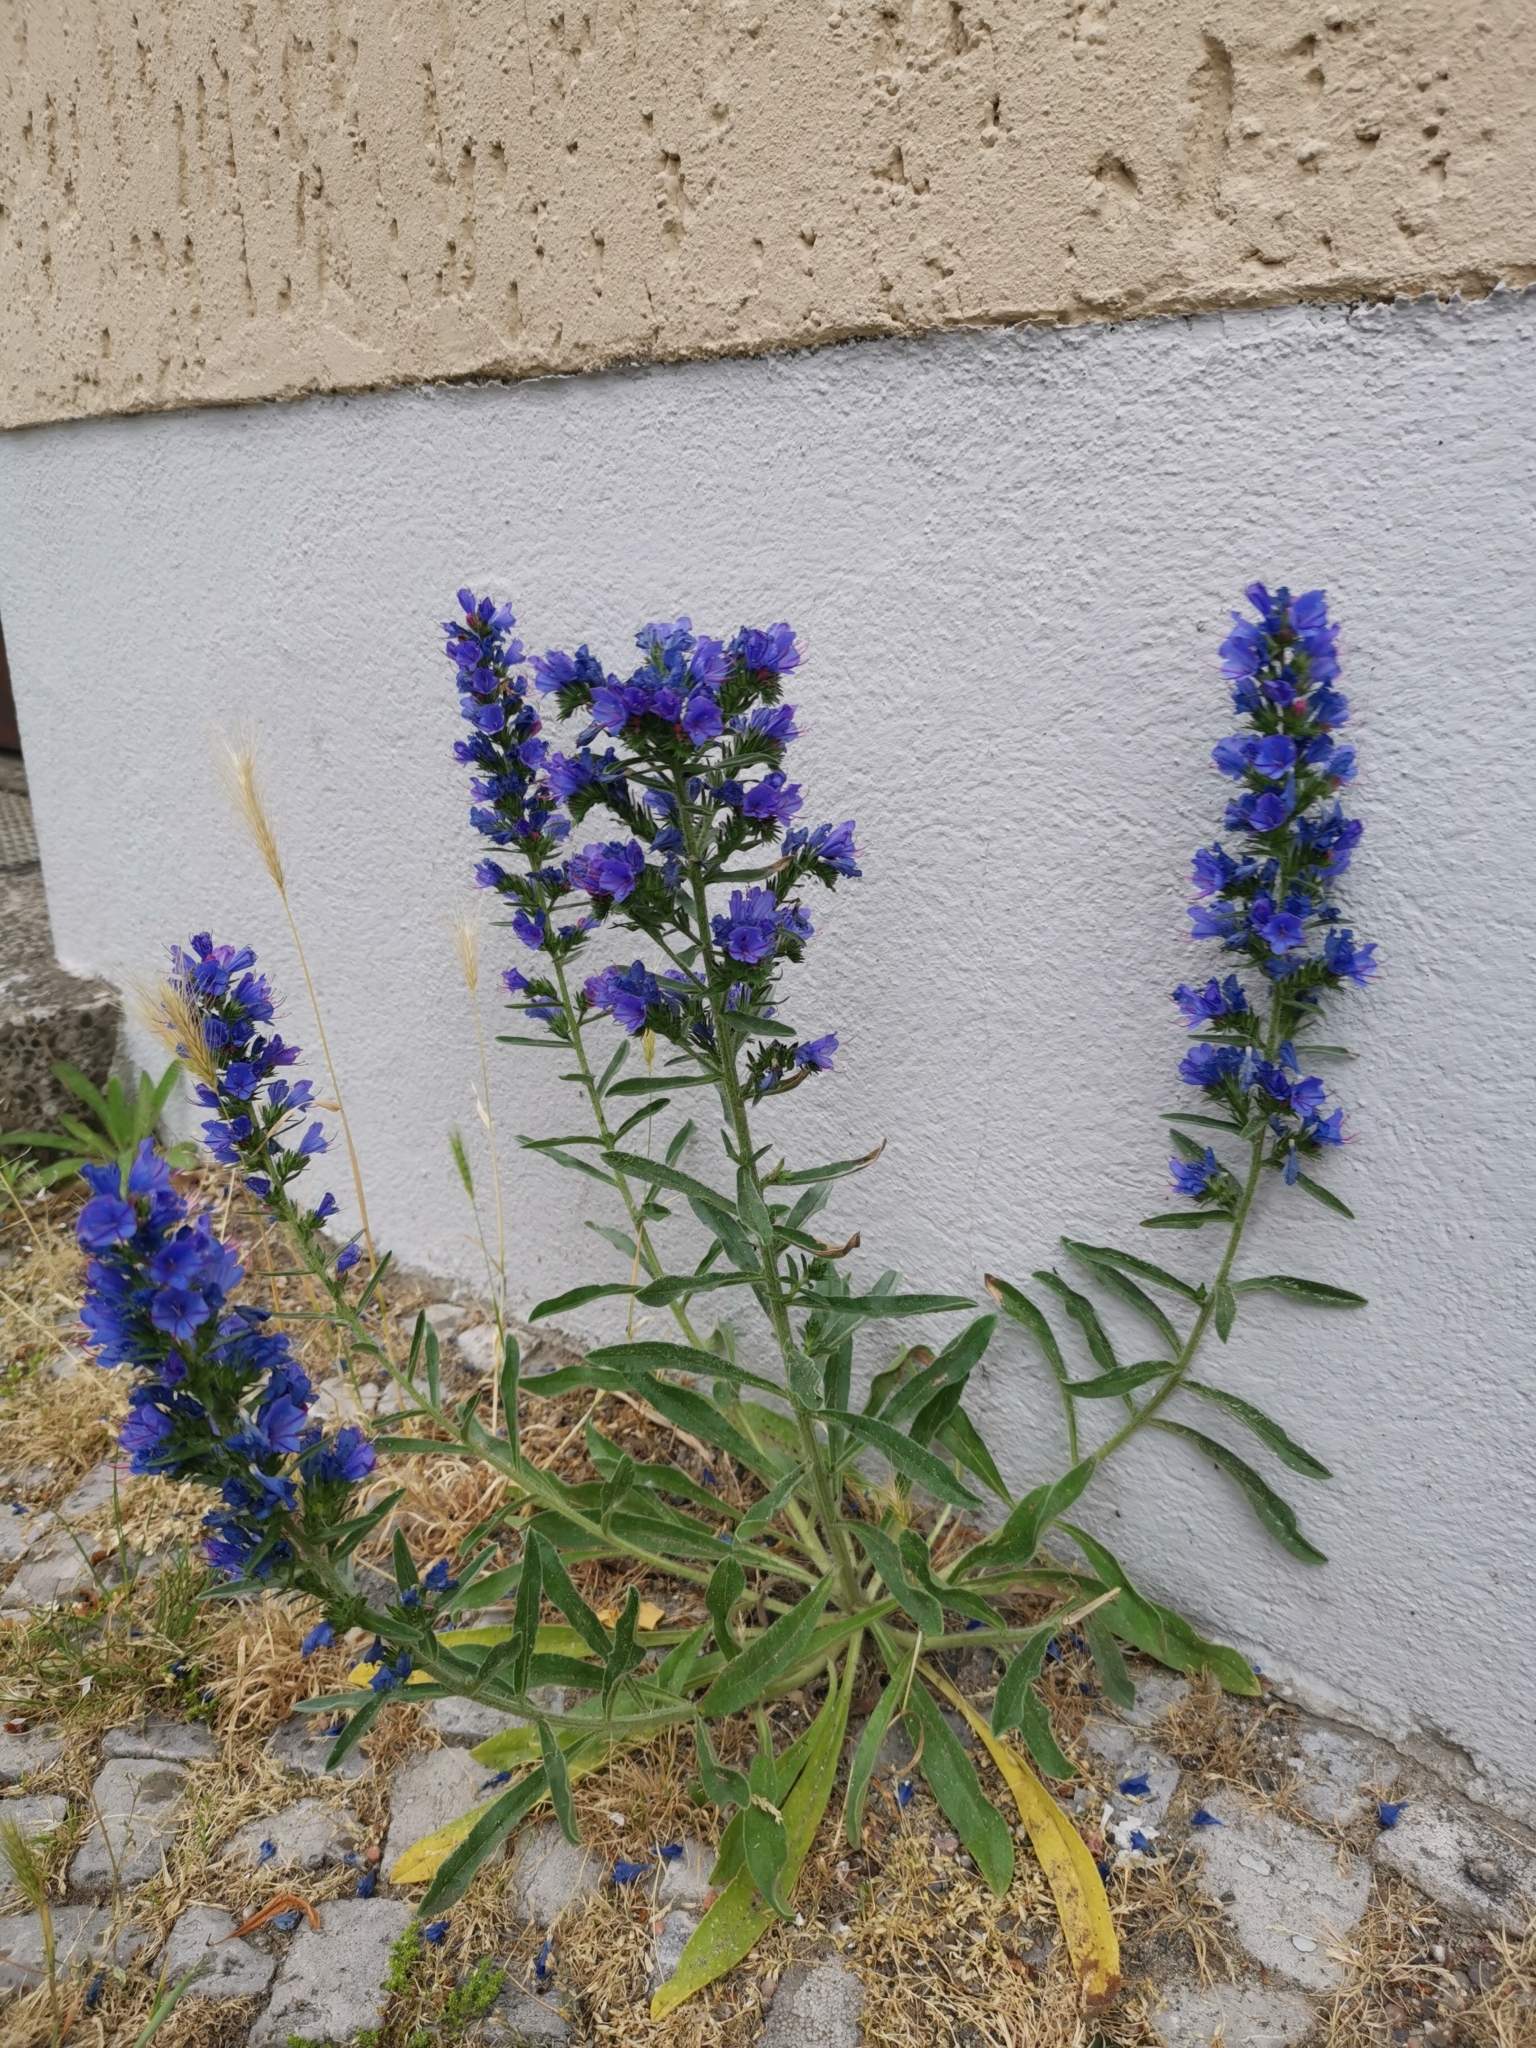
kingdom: Plantae
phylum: Tracheophyta
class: Magnoliopsida
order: Boraginales
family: Boraginaceae
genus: Echium
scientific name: Echium vulgare
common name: Common viper's bugloss
